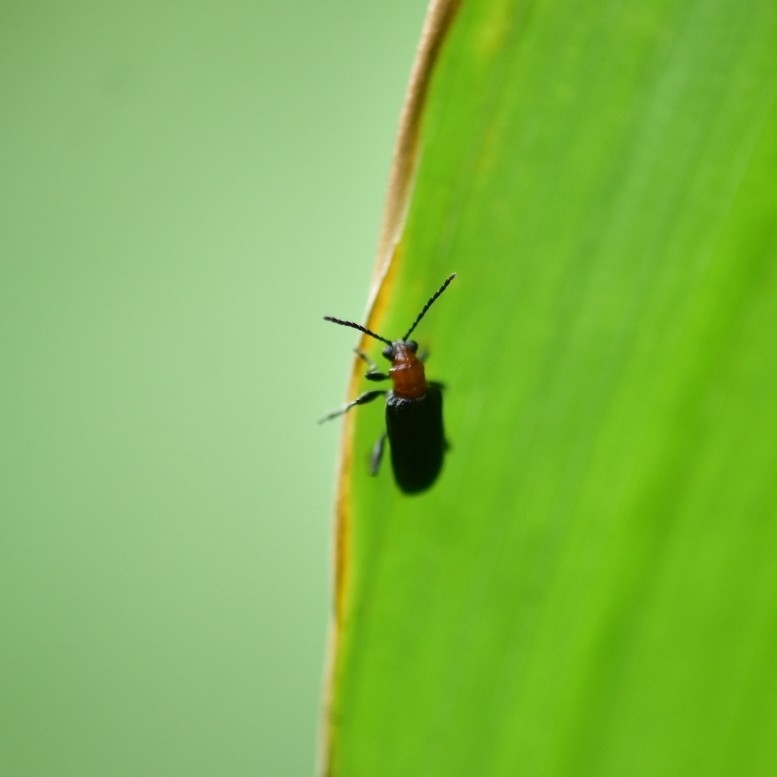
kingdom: Animalia
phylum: Arthropoda
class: Insecta
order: Coleoptera
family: Chrysomelidae
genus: Lema
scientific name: Lema praeusta
